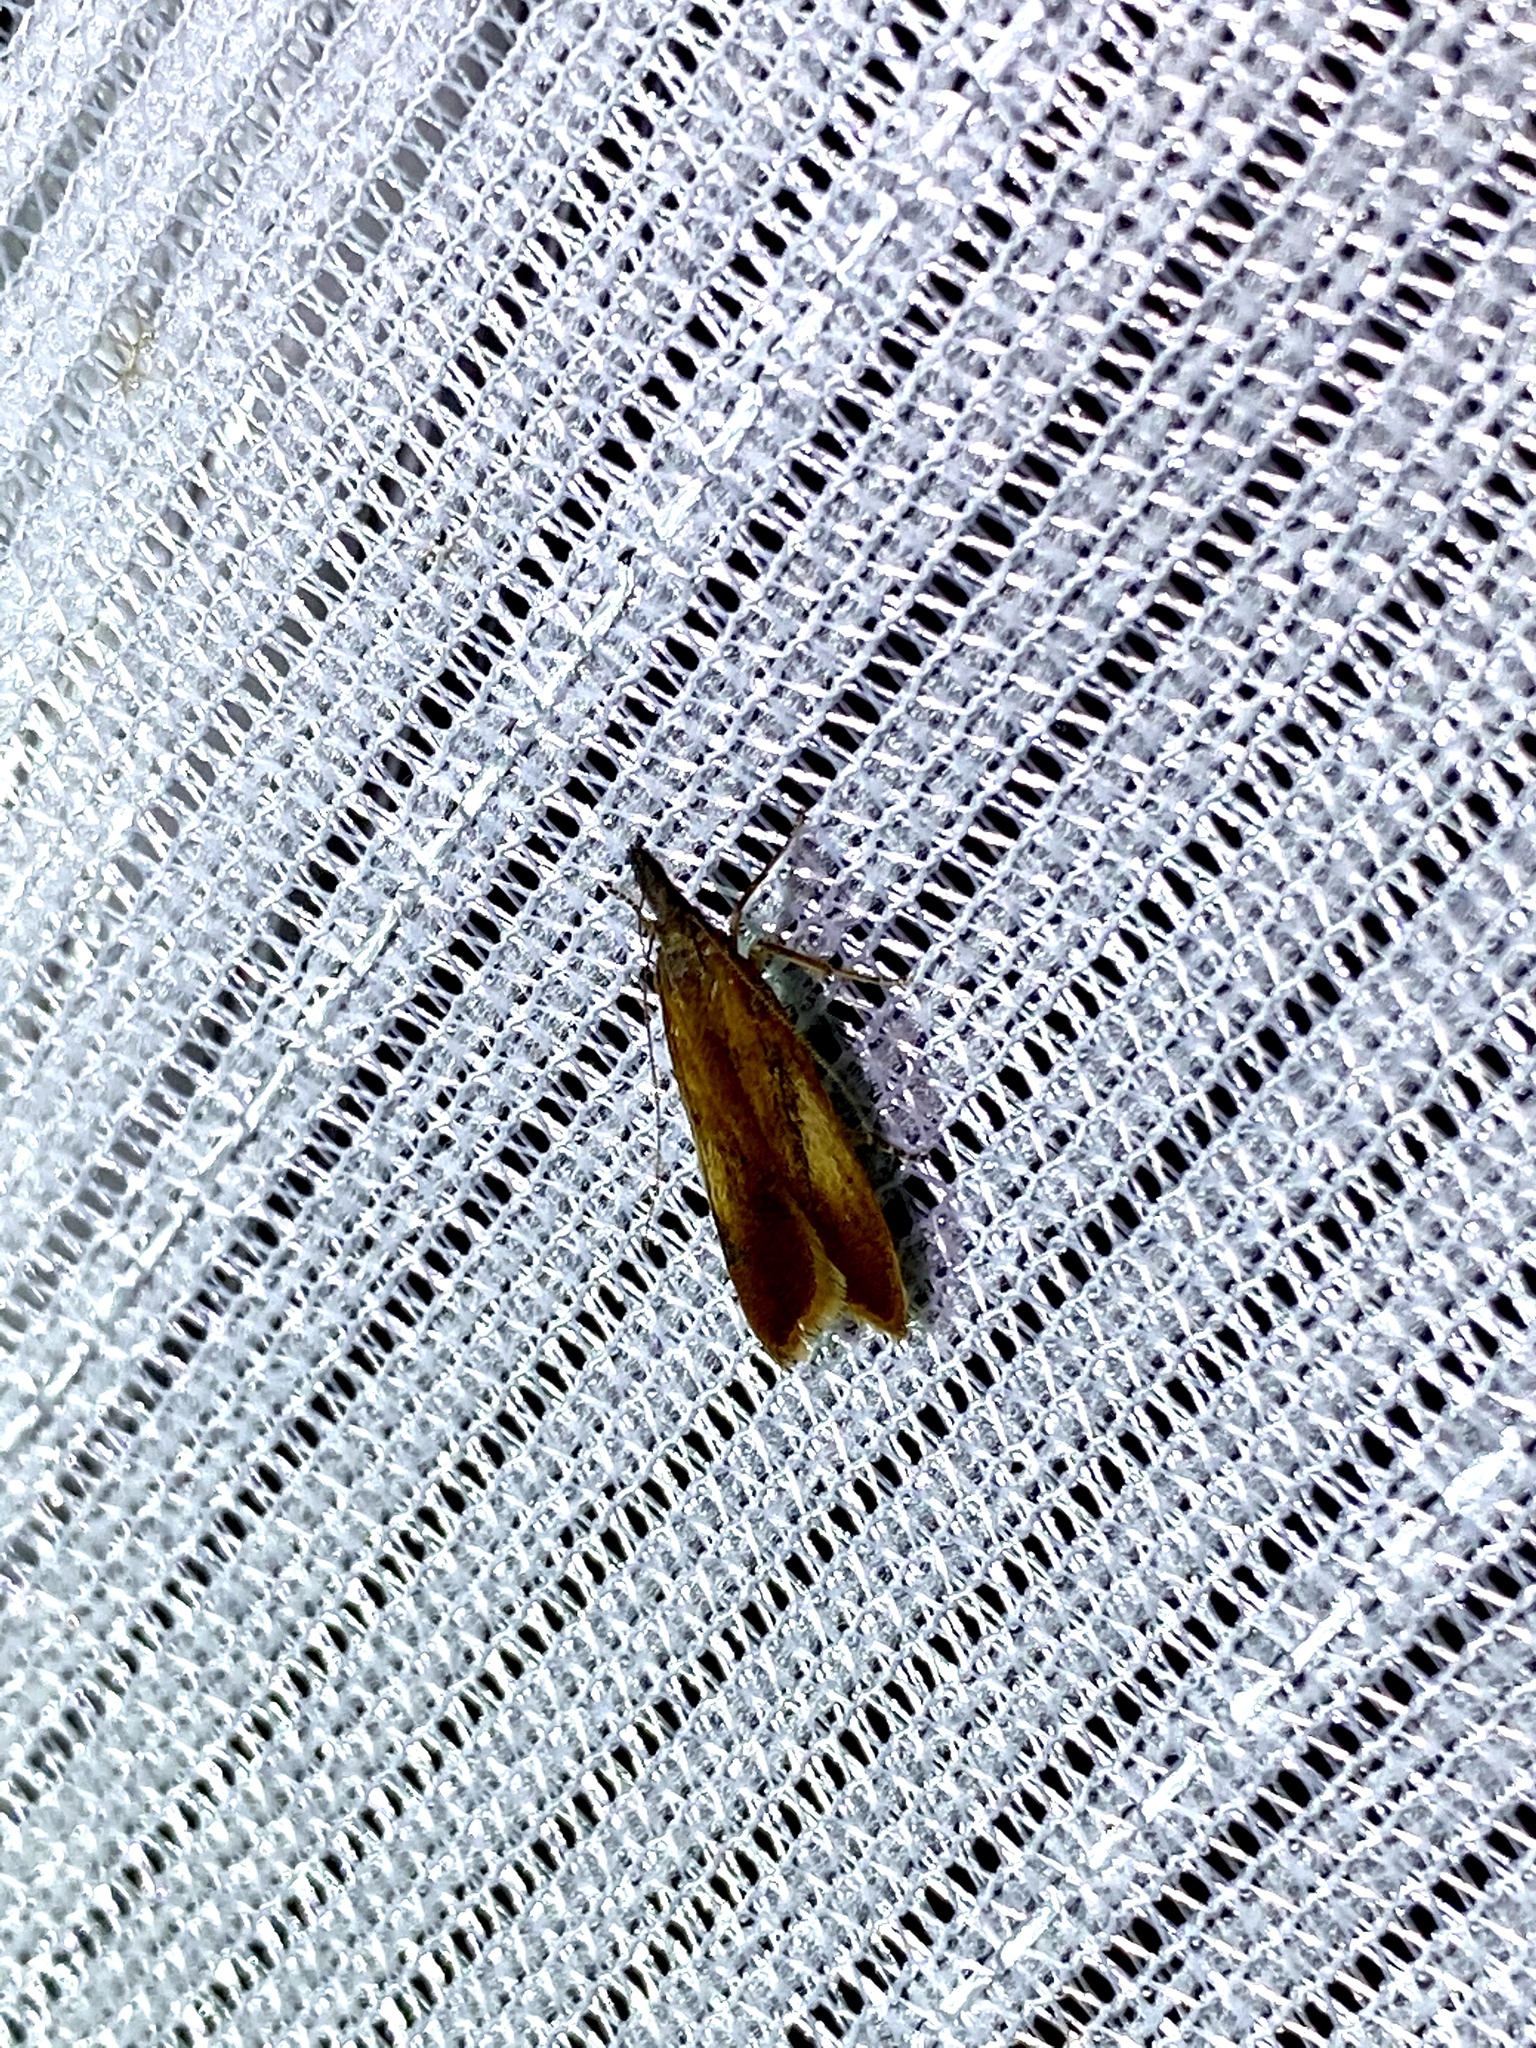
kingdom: Animalia
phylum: Arthropoda
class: Insecta
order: Lepidoptera
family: Gelechiidae
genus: Dichomeris
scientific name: Dichomeris ustalella
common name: Worcester crest
